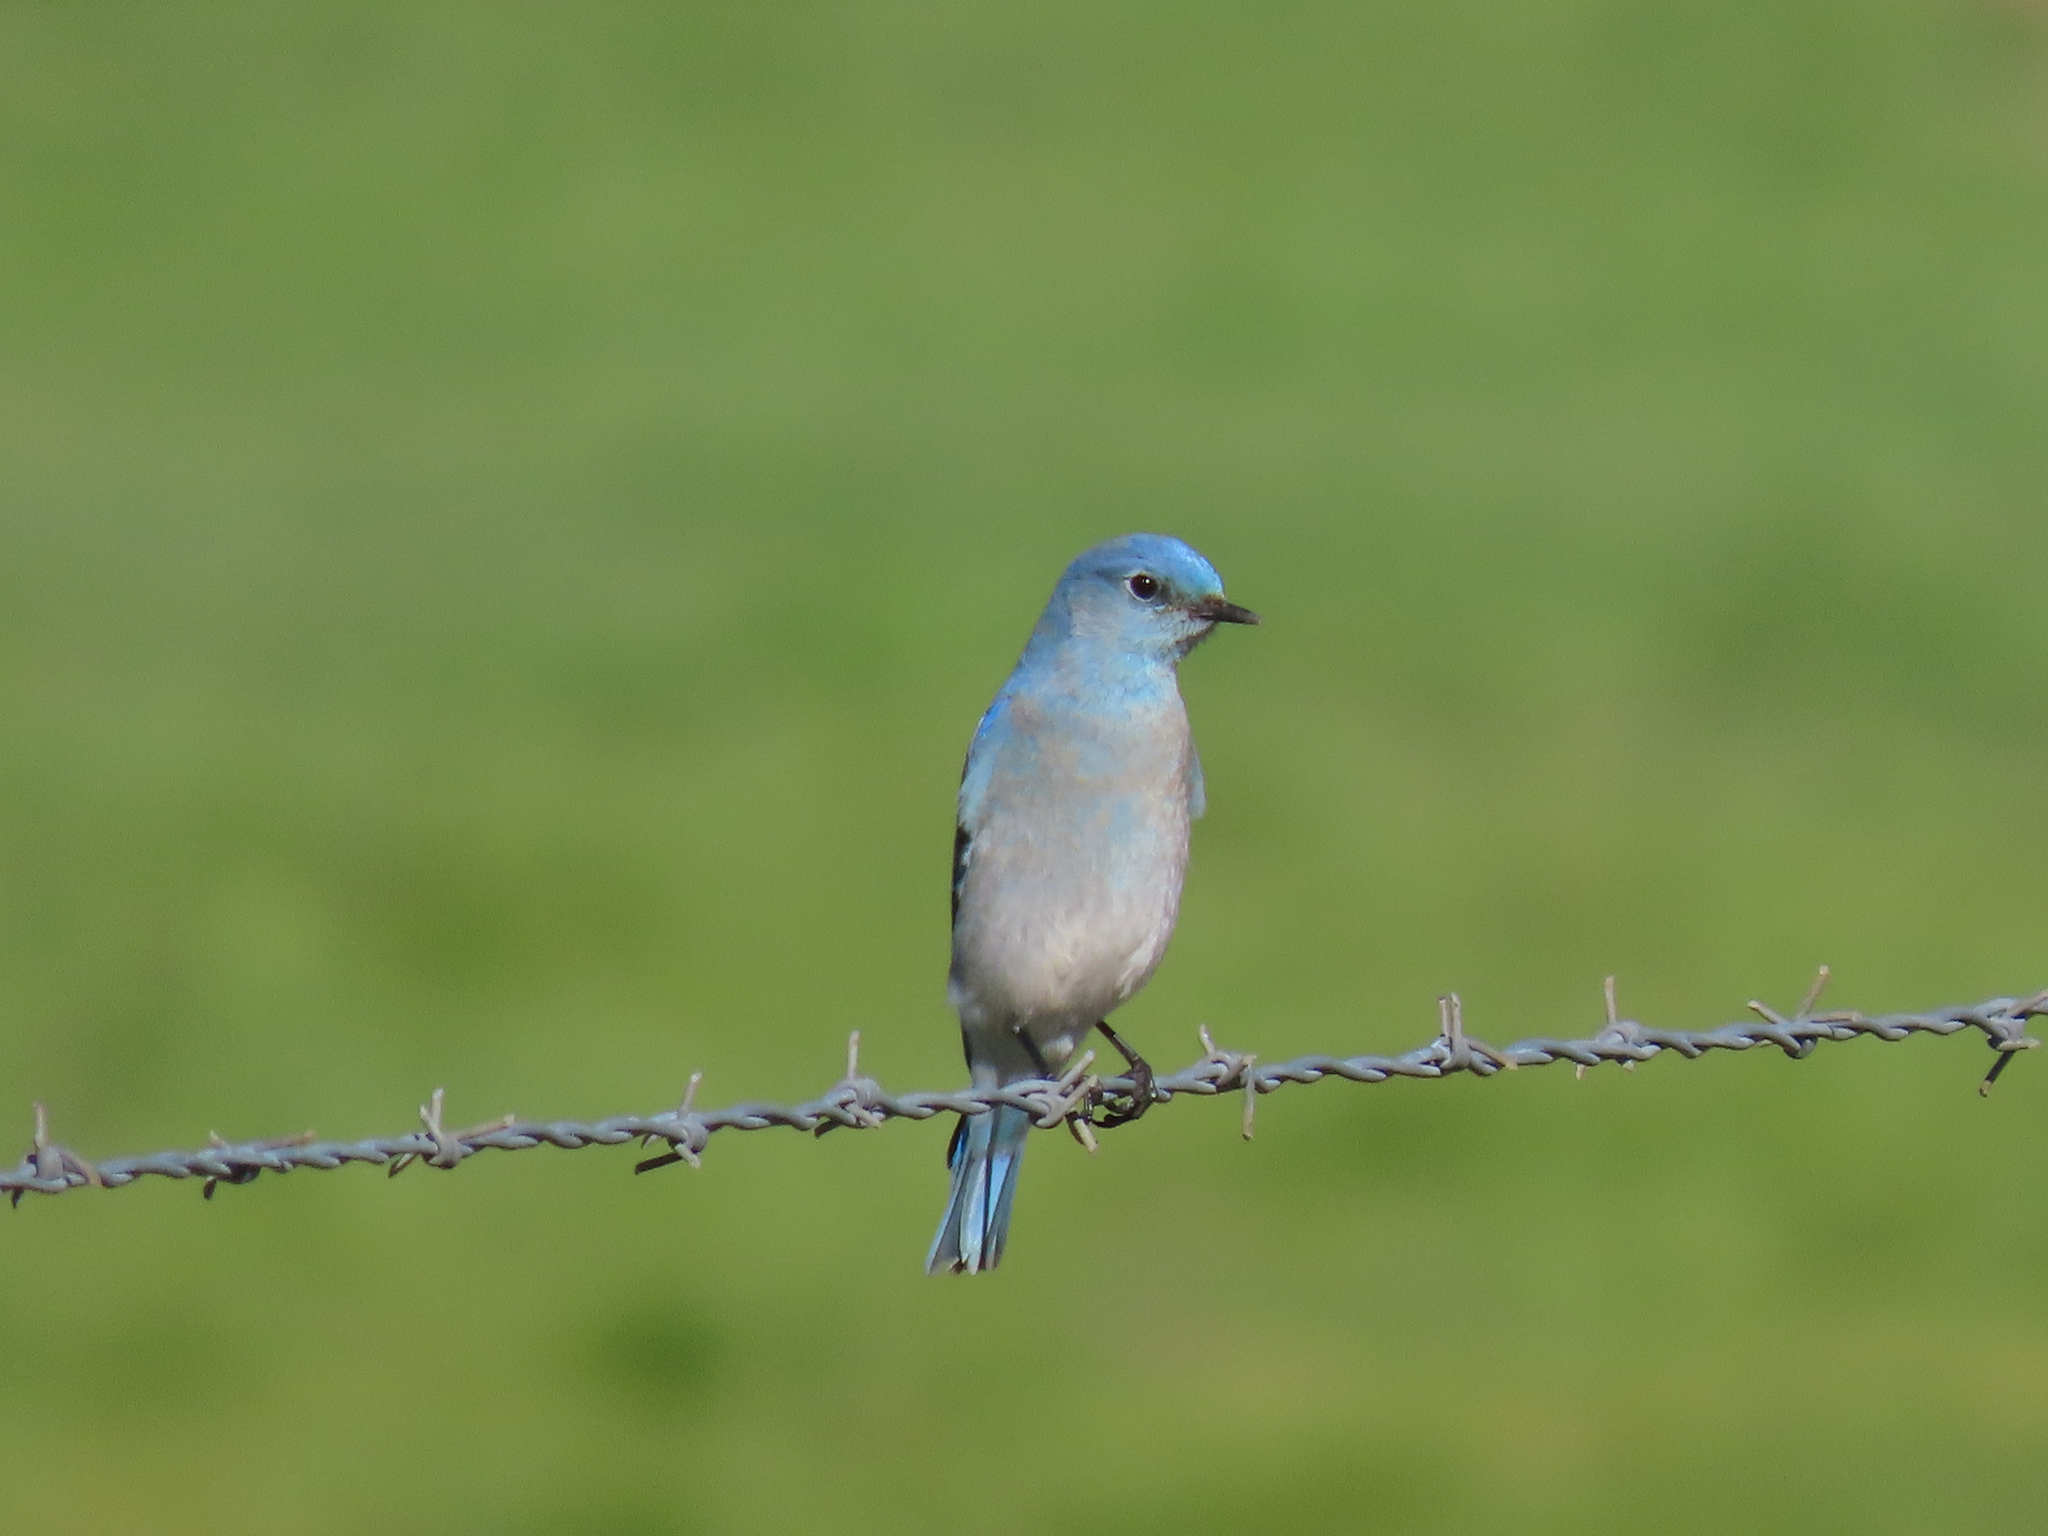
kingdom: Animalia
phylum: Chordata
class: Aves
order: Passeriformes
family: Turdidae
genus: Sialia
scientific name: Sialia currucoides
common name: Mountain bluebird
